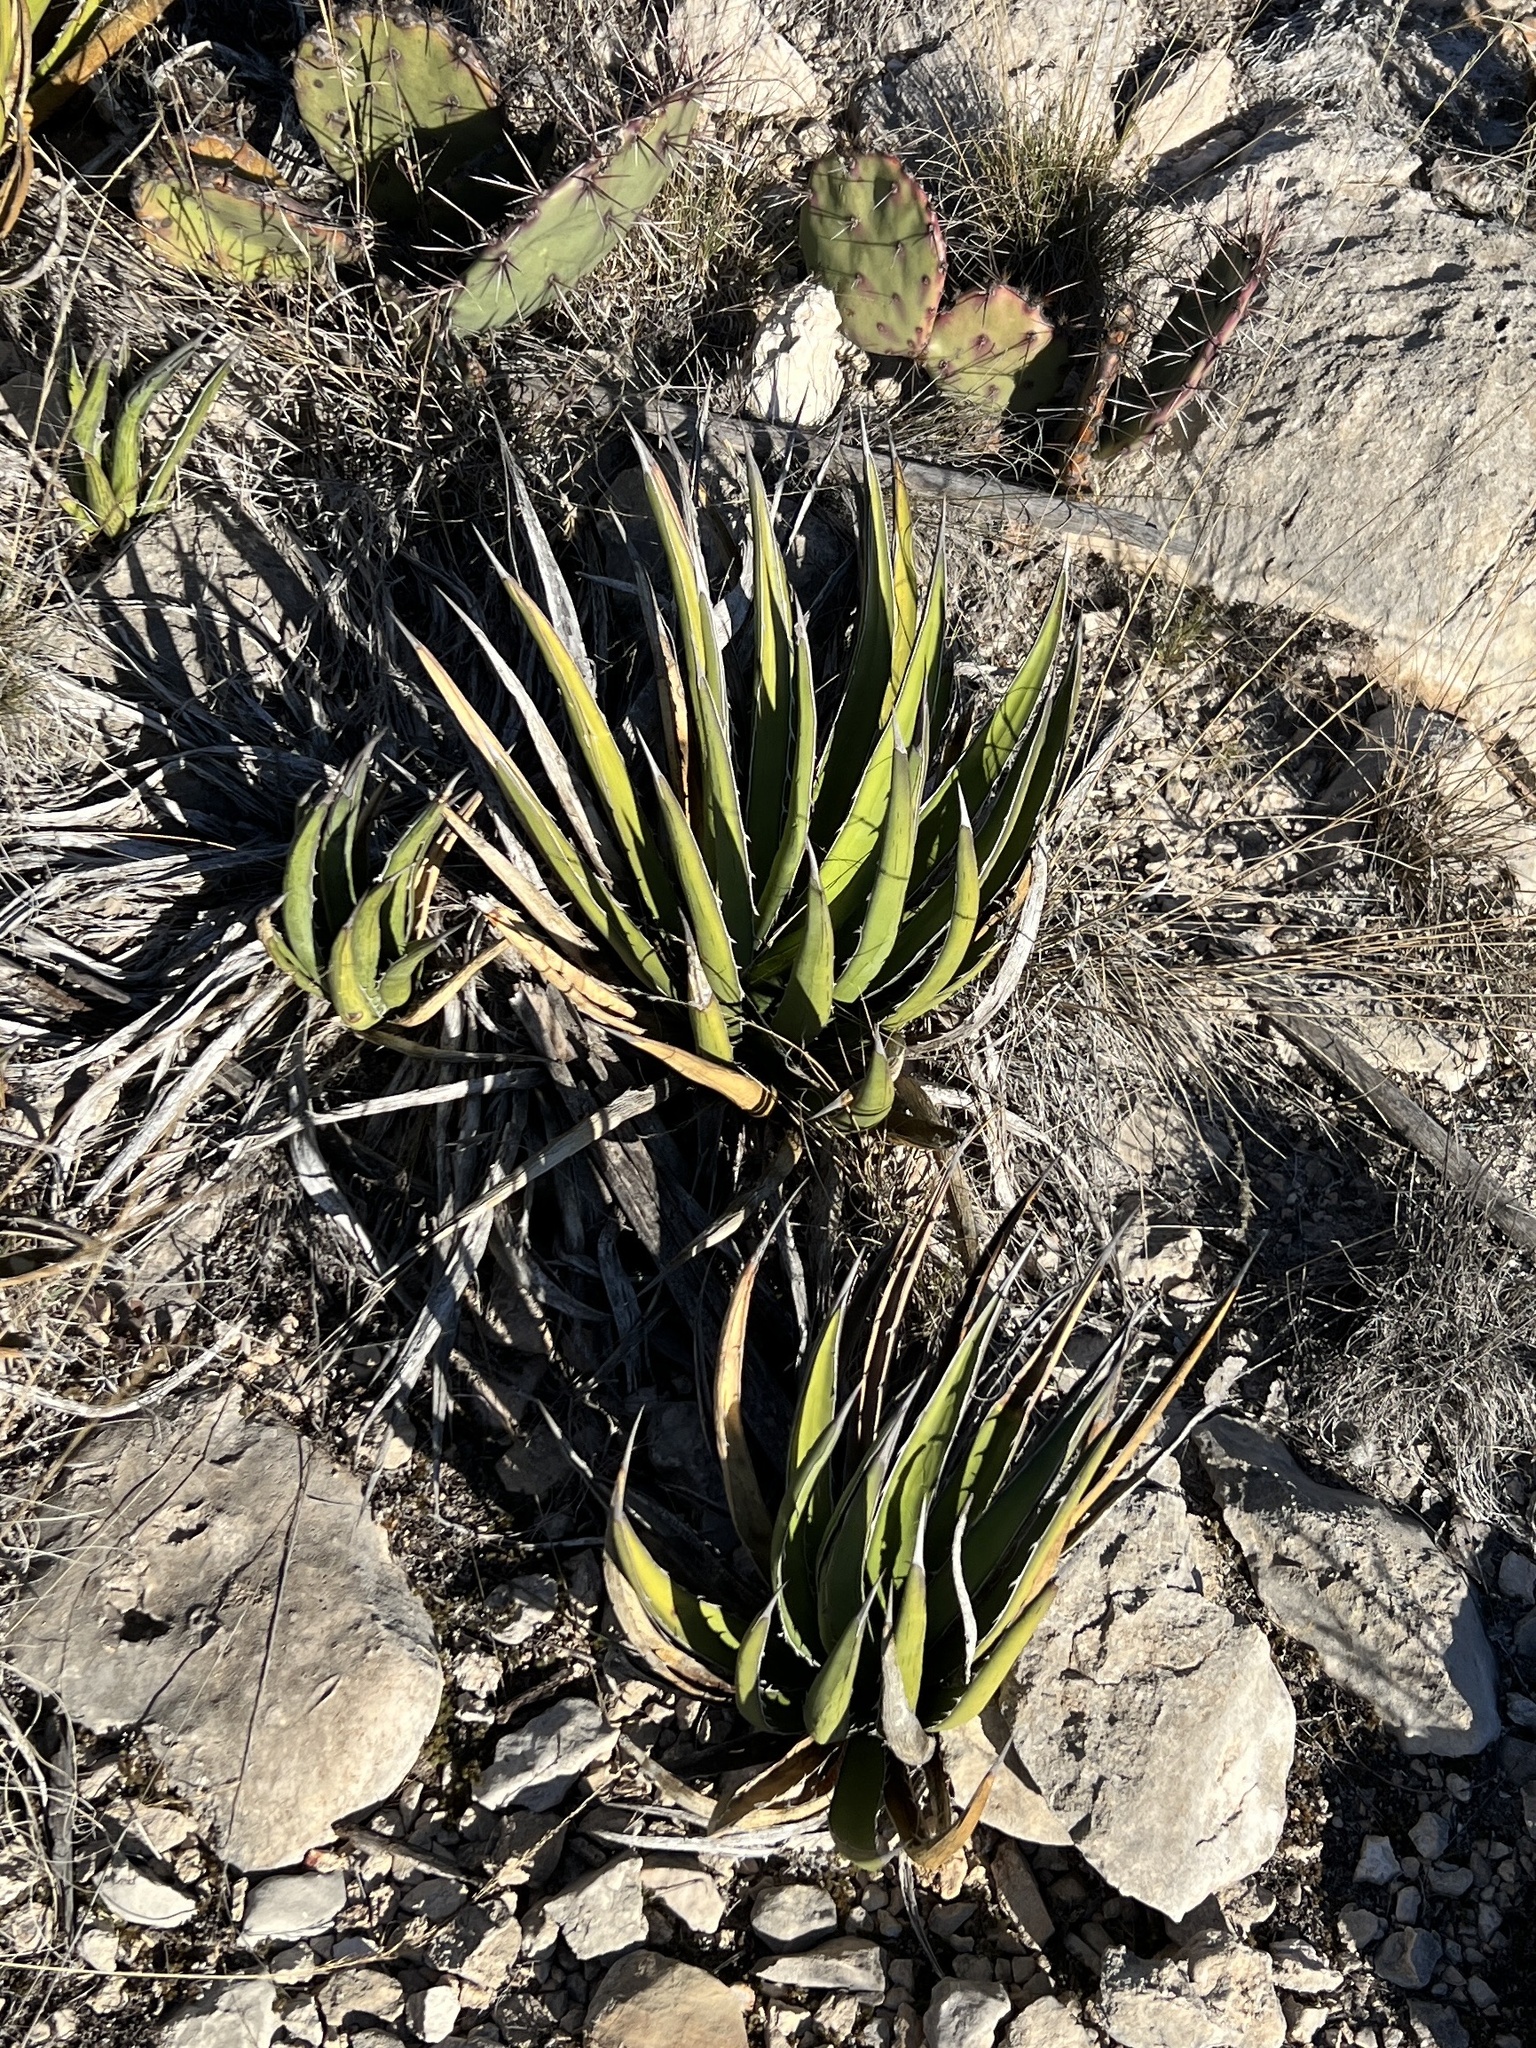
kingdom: Plantae
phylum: Tracheophyta
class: Liliopsida
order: Asparagales
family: Asparagaceae
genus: Agave
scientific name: Agave lechuguilla
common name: Lecheguilla agave
